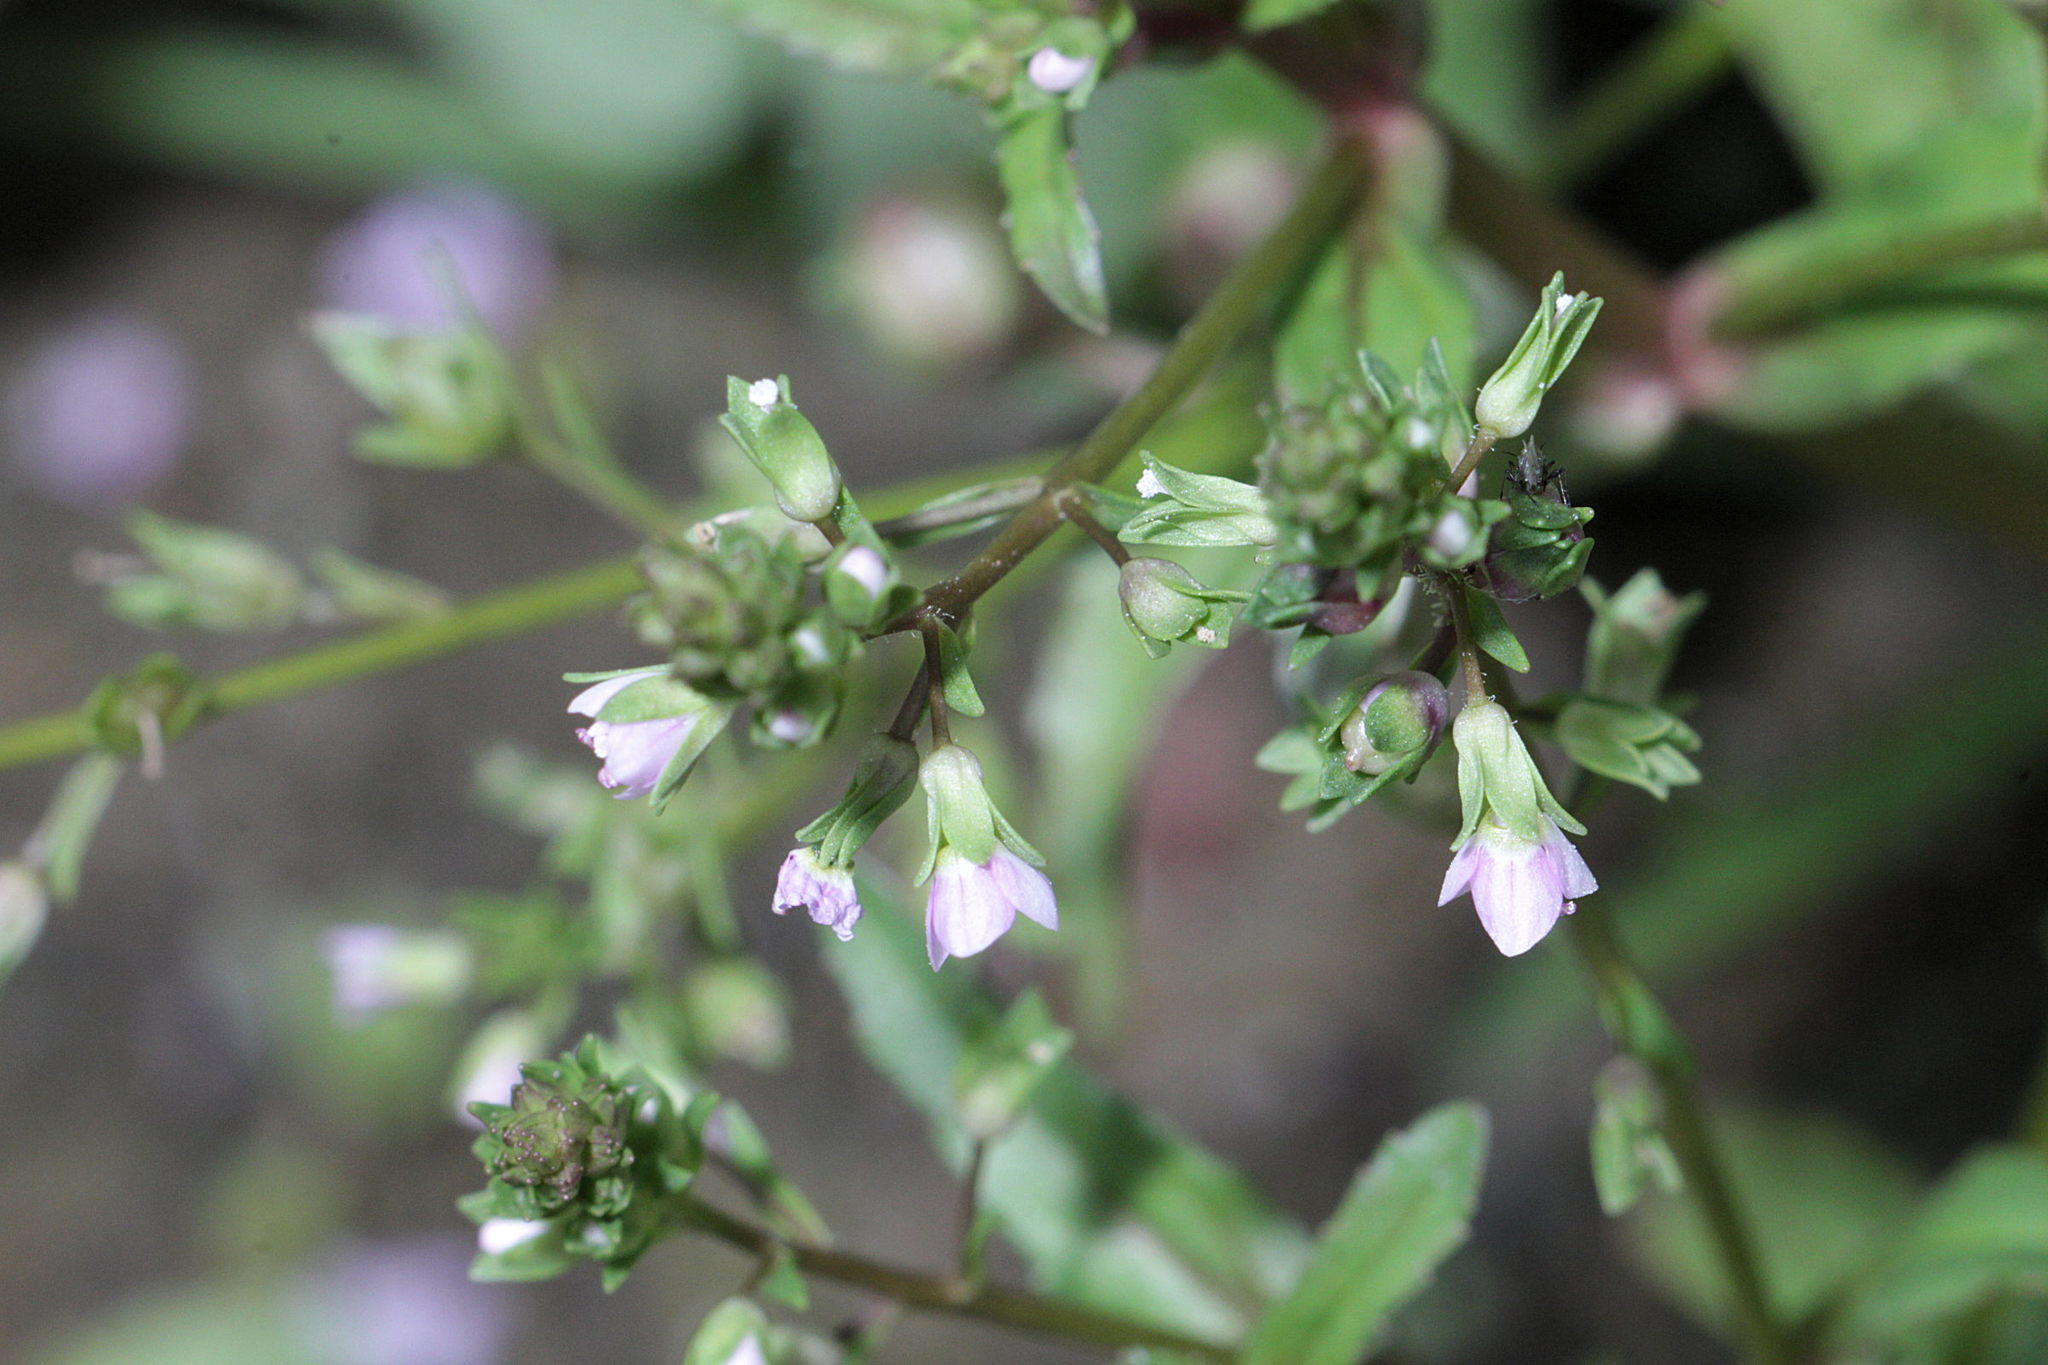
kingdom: Plantae
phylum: Tracheophyta
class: Magnoliopsida
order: Lamiales
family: Plantaginaceae
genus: Veronica
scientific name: Veronica catenata
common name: Pink water-speedwell
